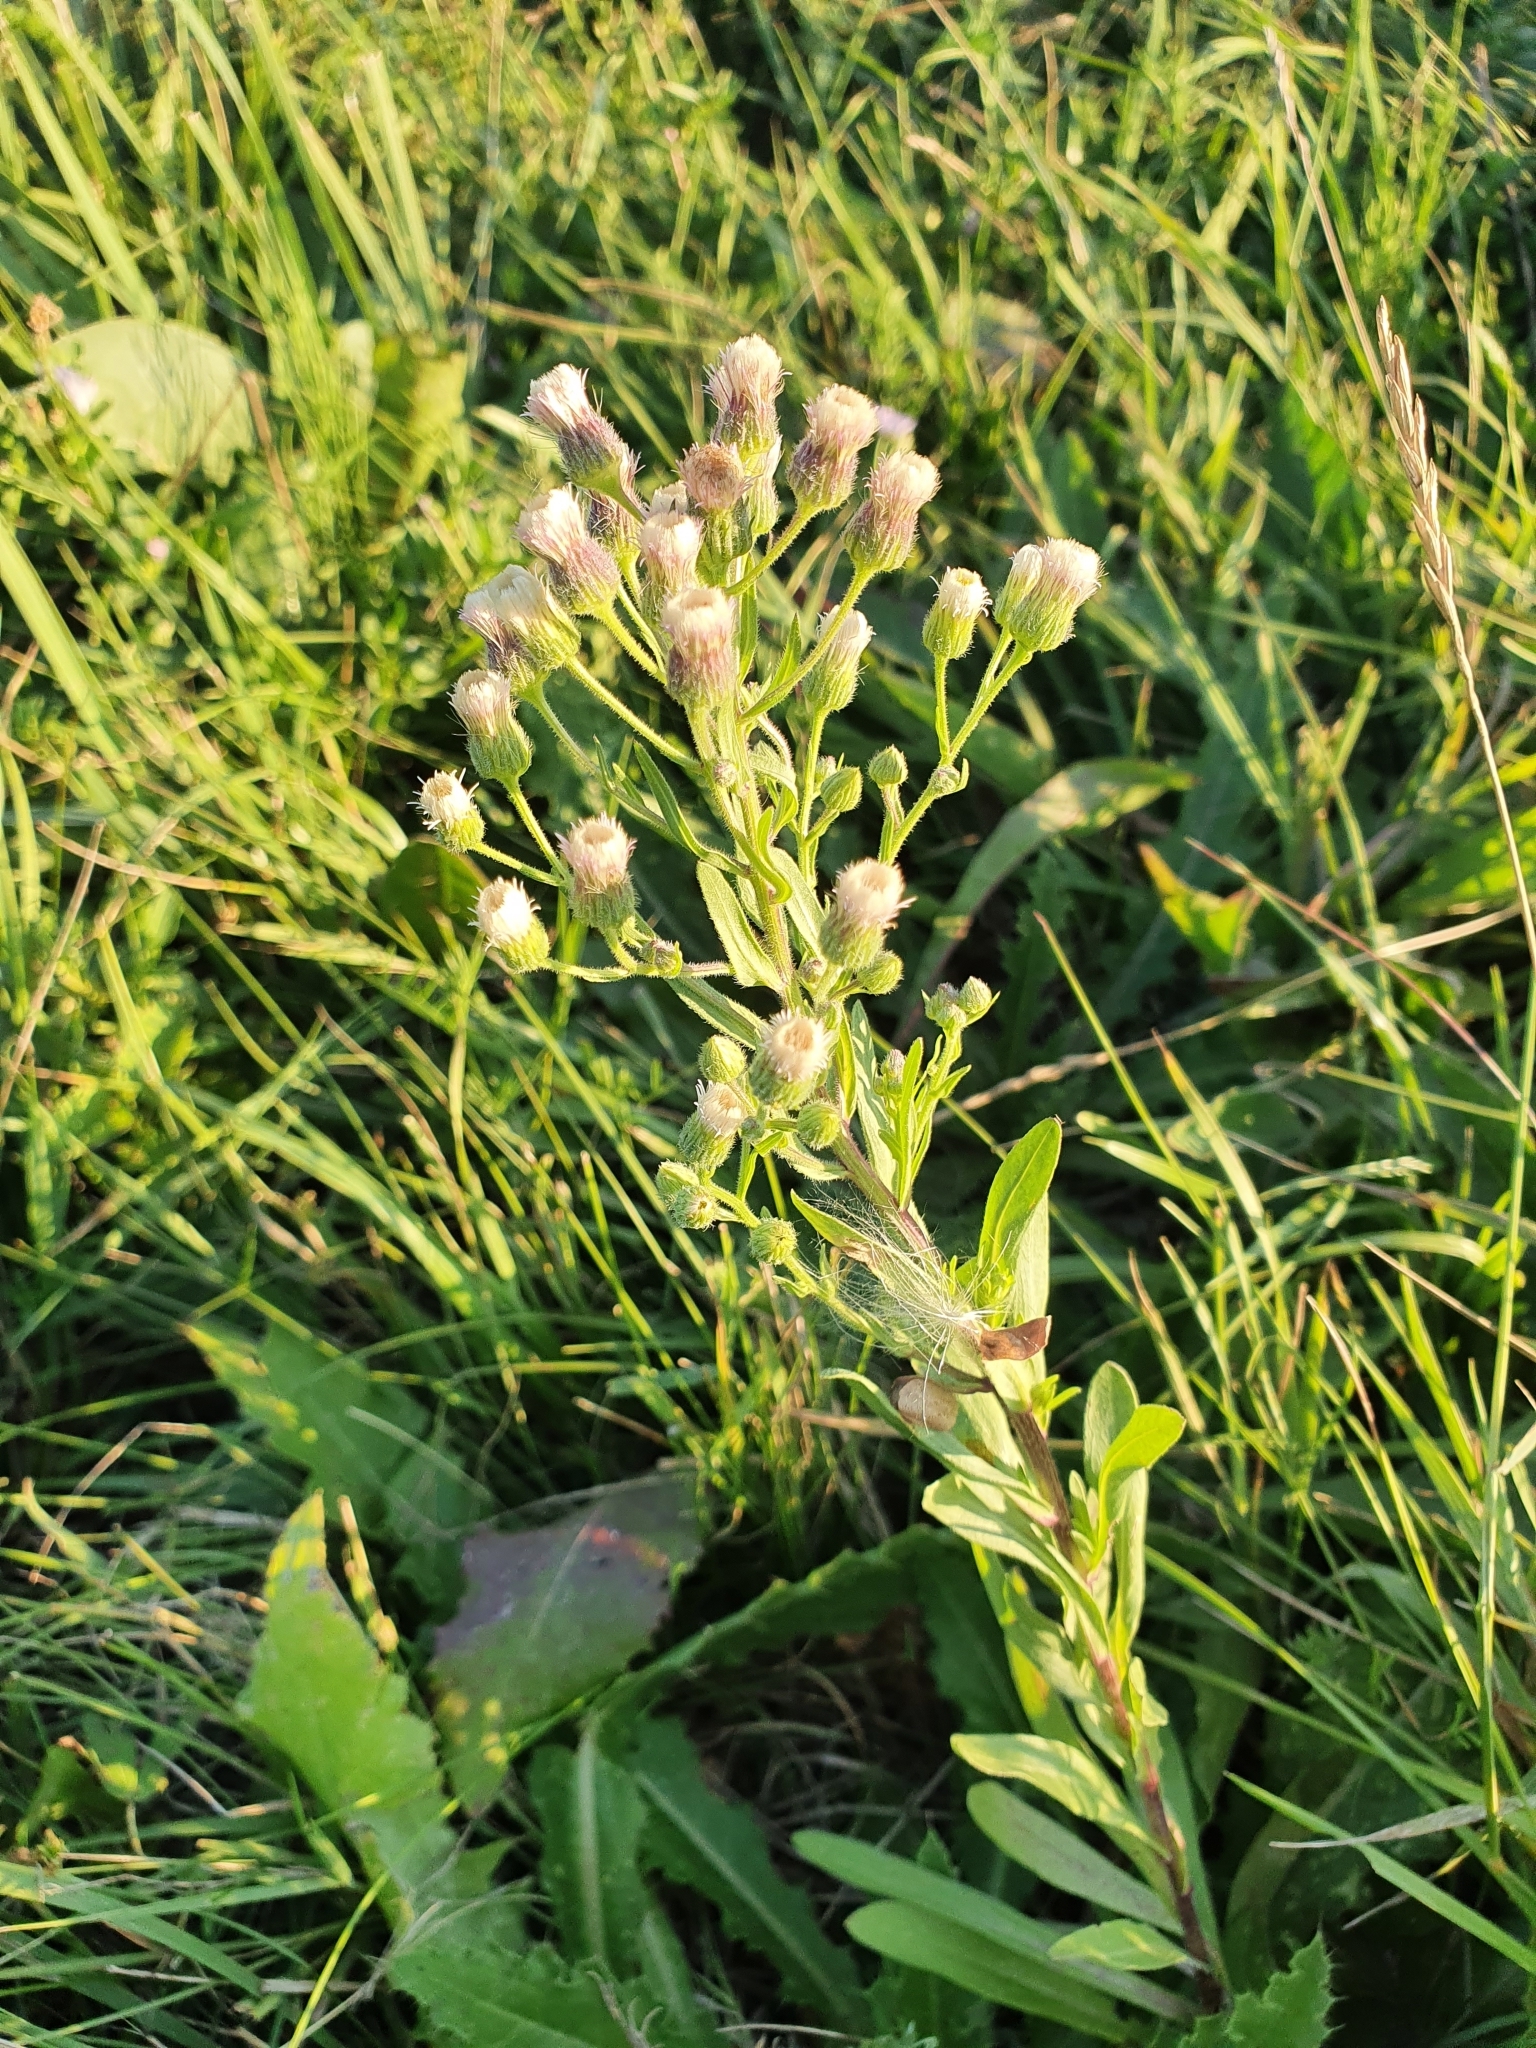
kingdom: Plantae
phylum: Tracheophyta
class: Magnoliopsida
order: Asterales
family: Asteraceae
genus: Erigeron
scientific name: Erigeron acris
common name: Blue fleabane
